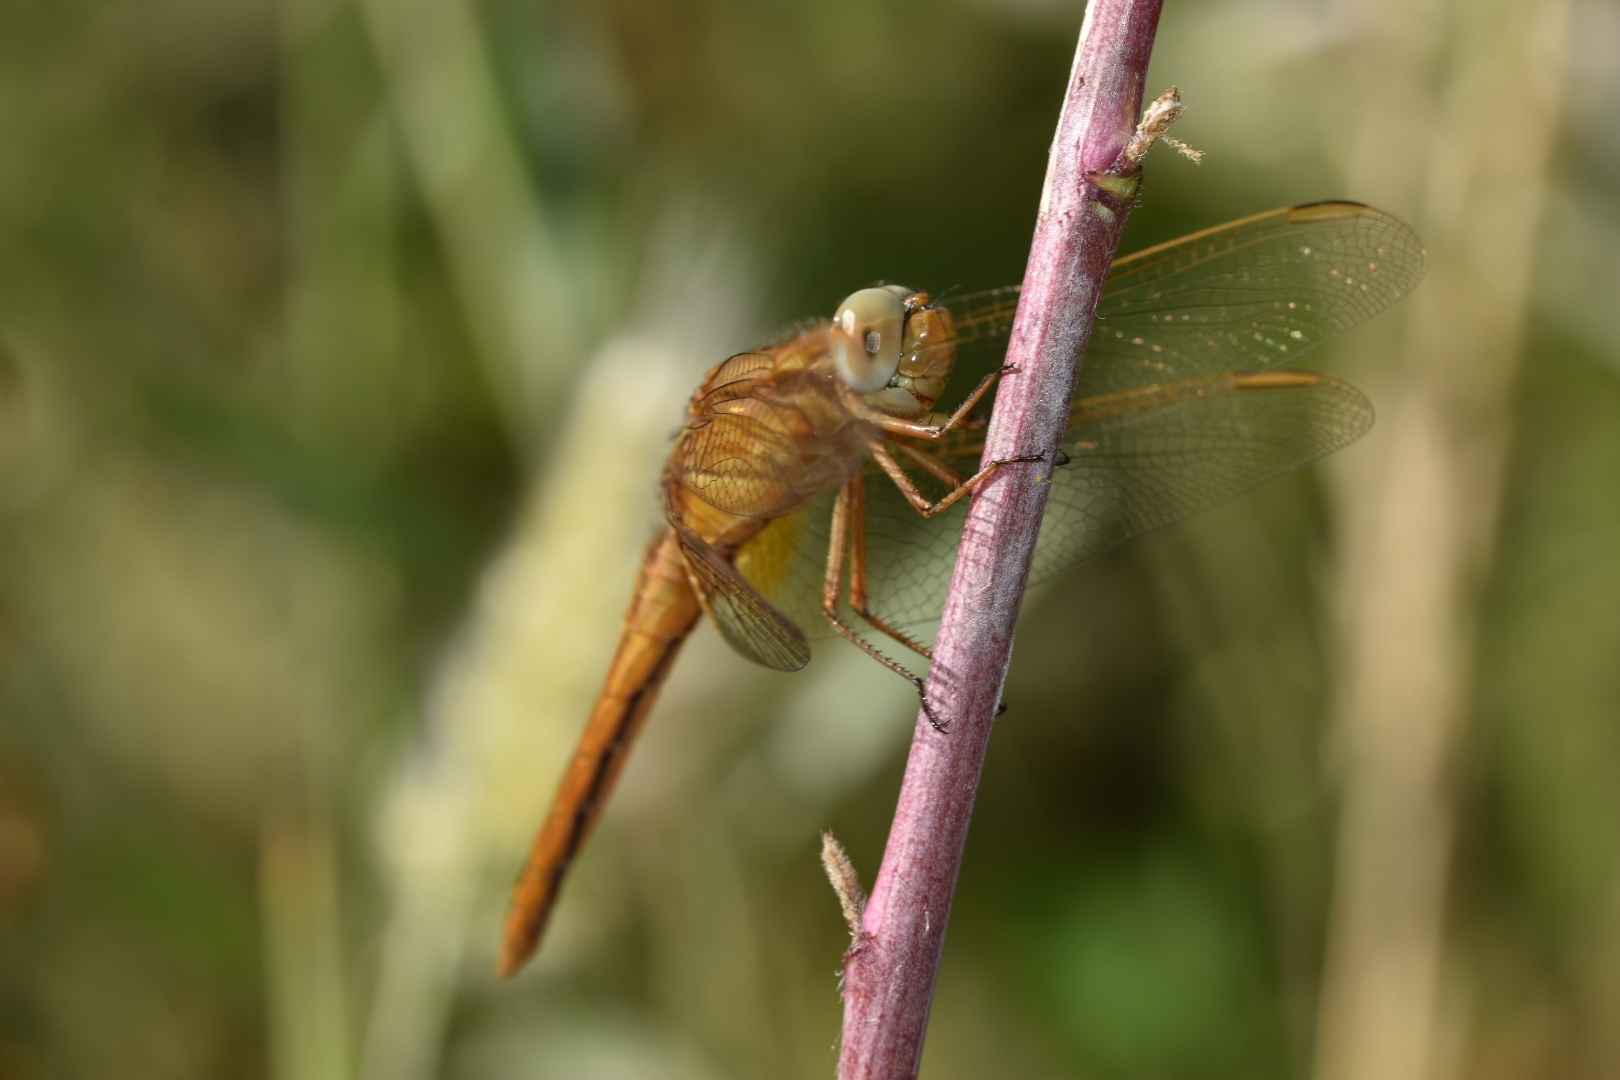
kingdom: Animalia
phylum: Arthropoda
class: Insecta
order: Odonata
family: Libellulidae
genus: Crocothemis
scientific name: Crocothemis erythraea
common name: Scarlet dragonfly
